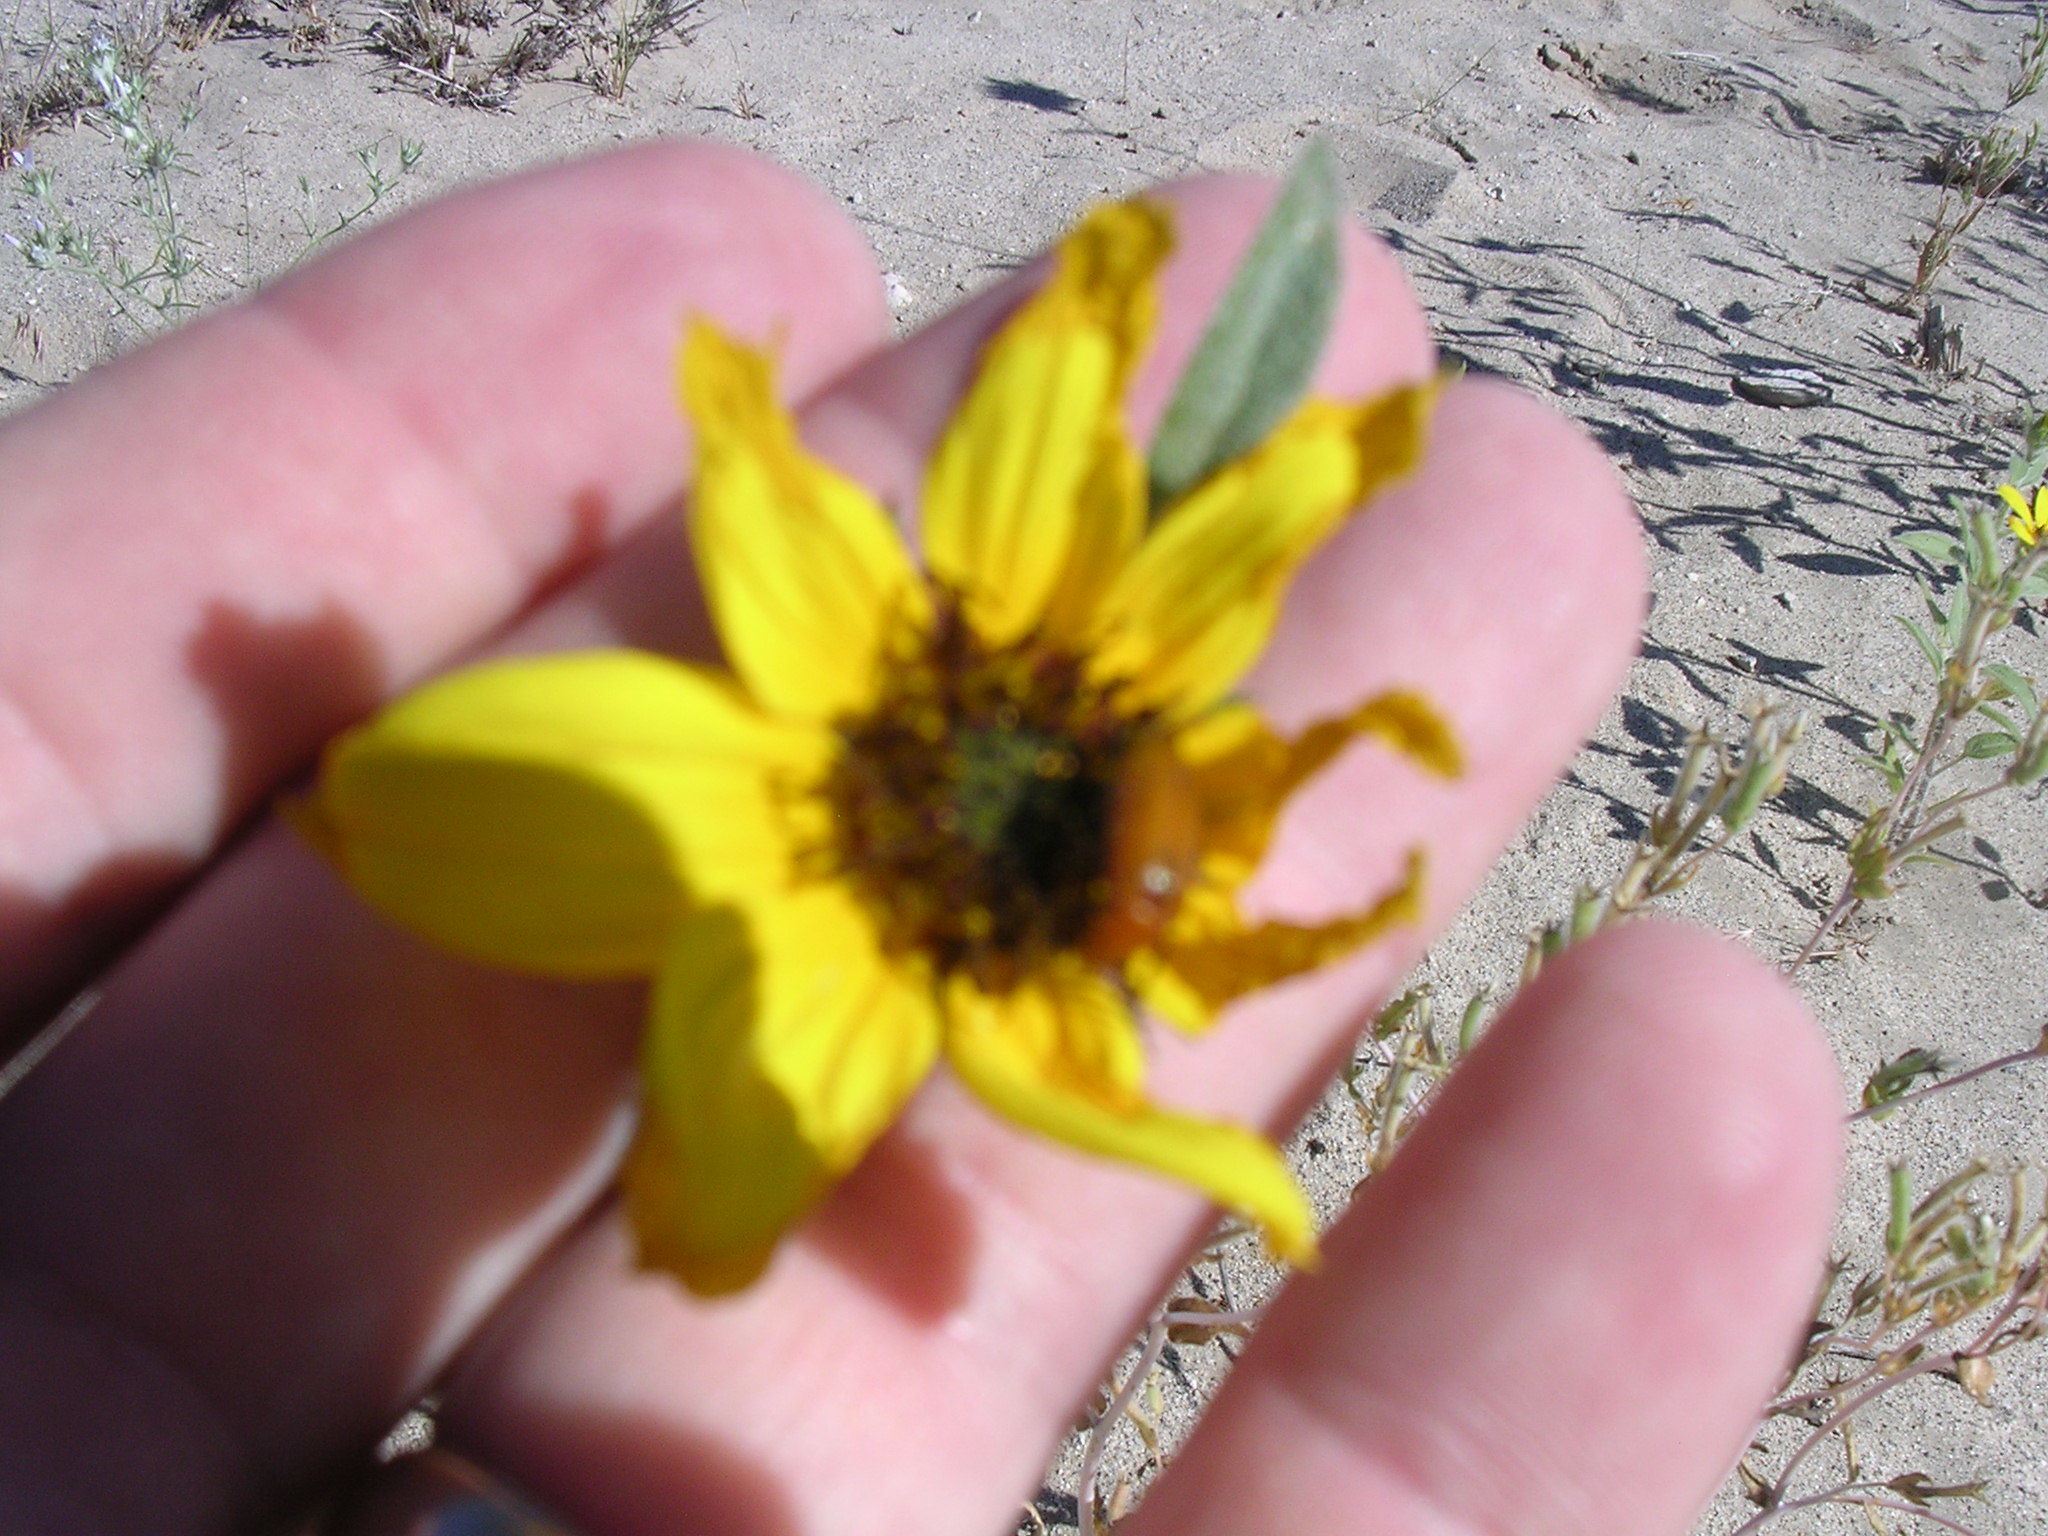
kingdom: Plantae
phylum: Tracheophyta
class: Magnoliopsida
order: Asterales
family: Asteraceae
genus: Helianthus
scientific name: Helianthus deserticola
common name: Desert sunflower
